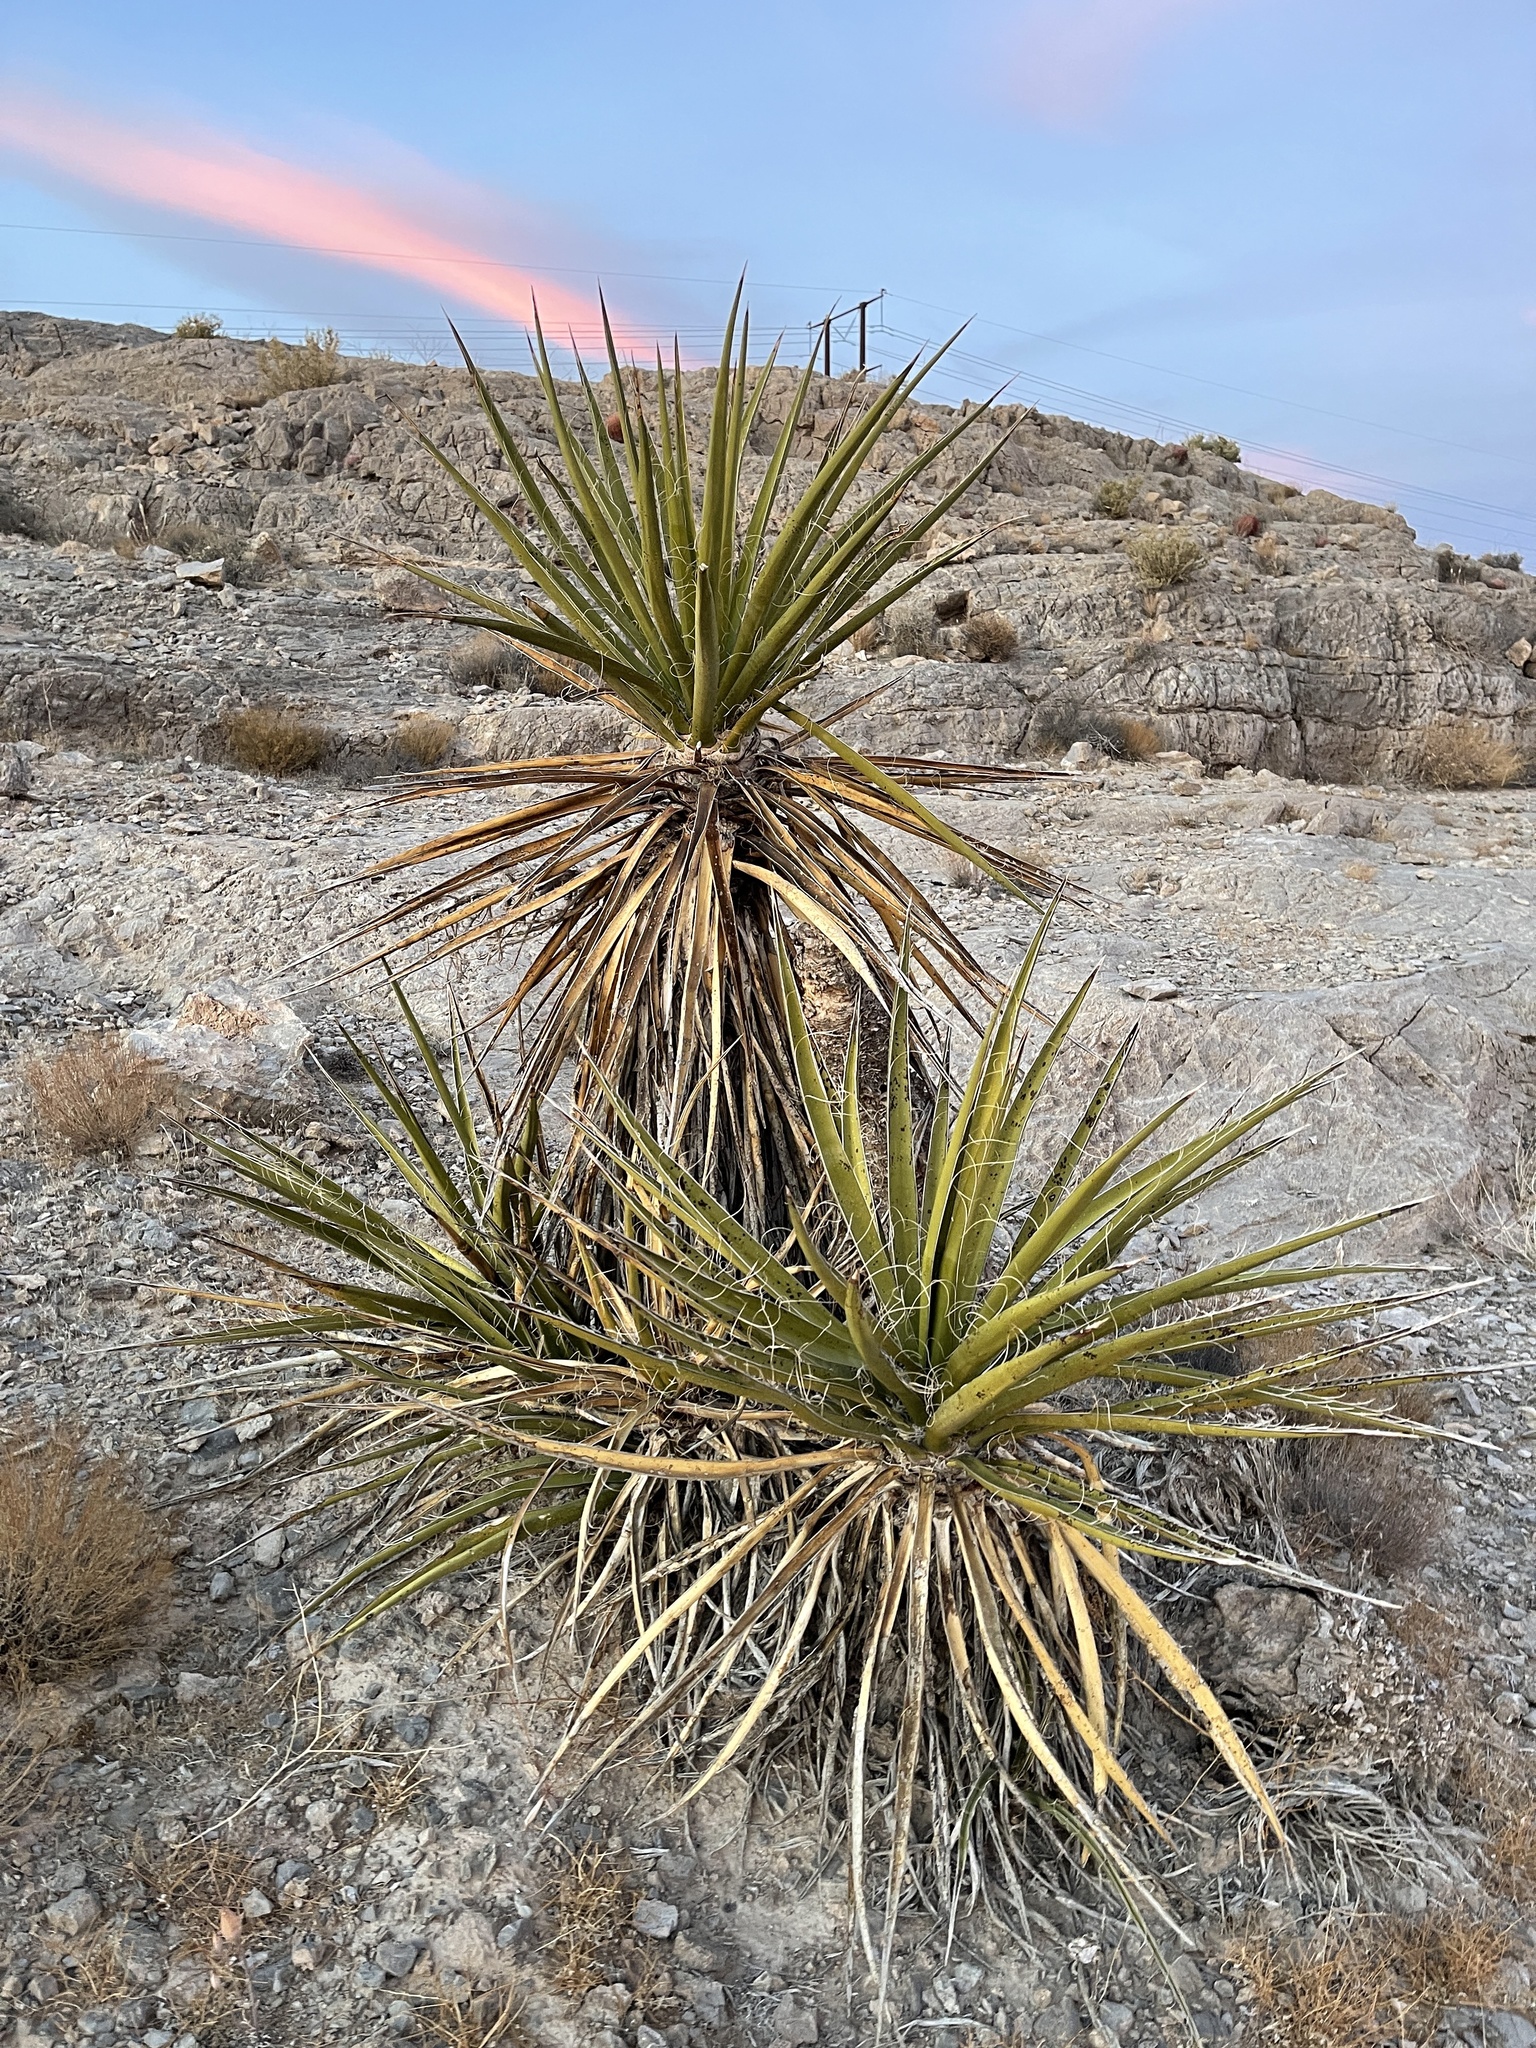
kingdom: Plantae
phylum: Tracheophyta
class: Liliopsida
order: Asparagales
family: Asparagaceae
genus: Yucca
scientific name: Yucca schidigera
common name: Mojave yucca
